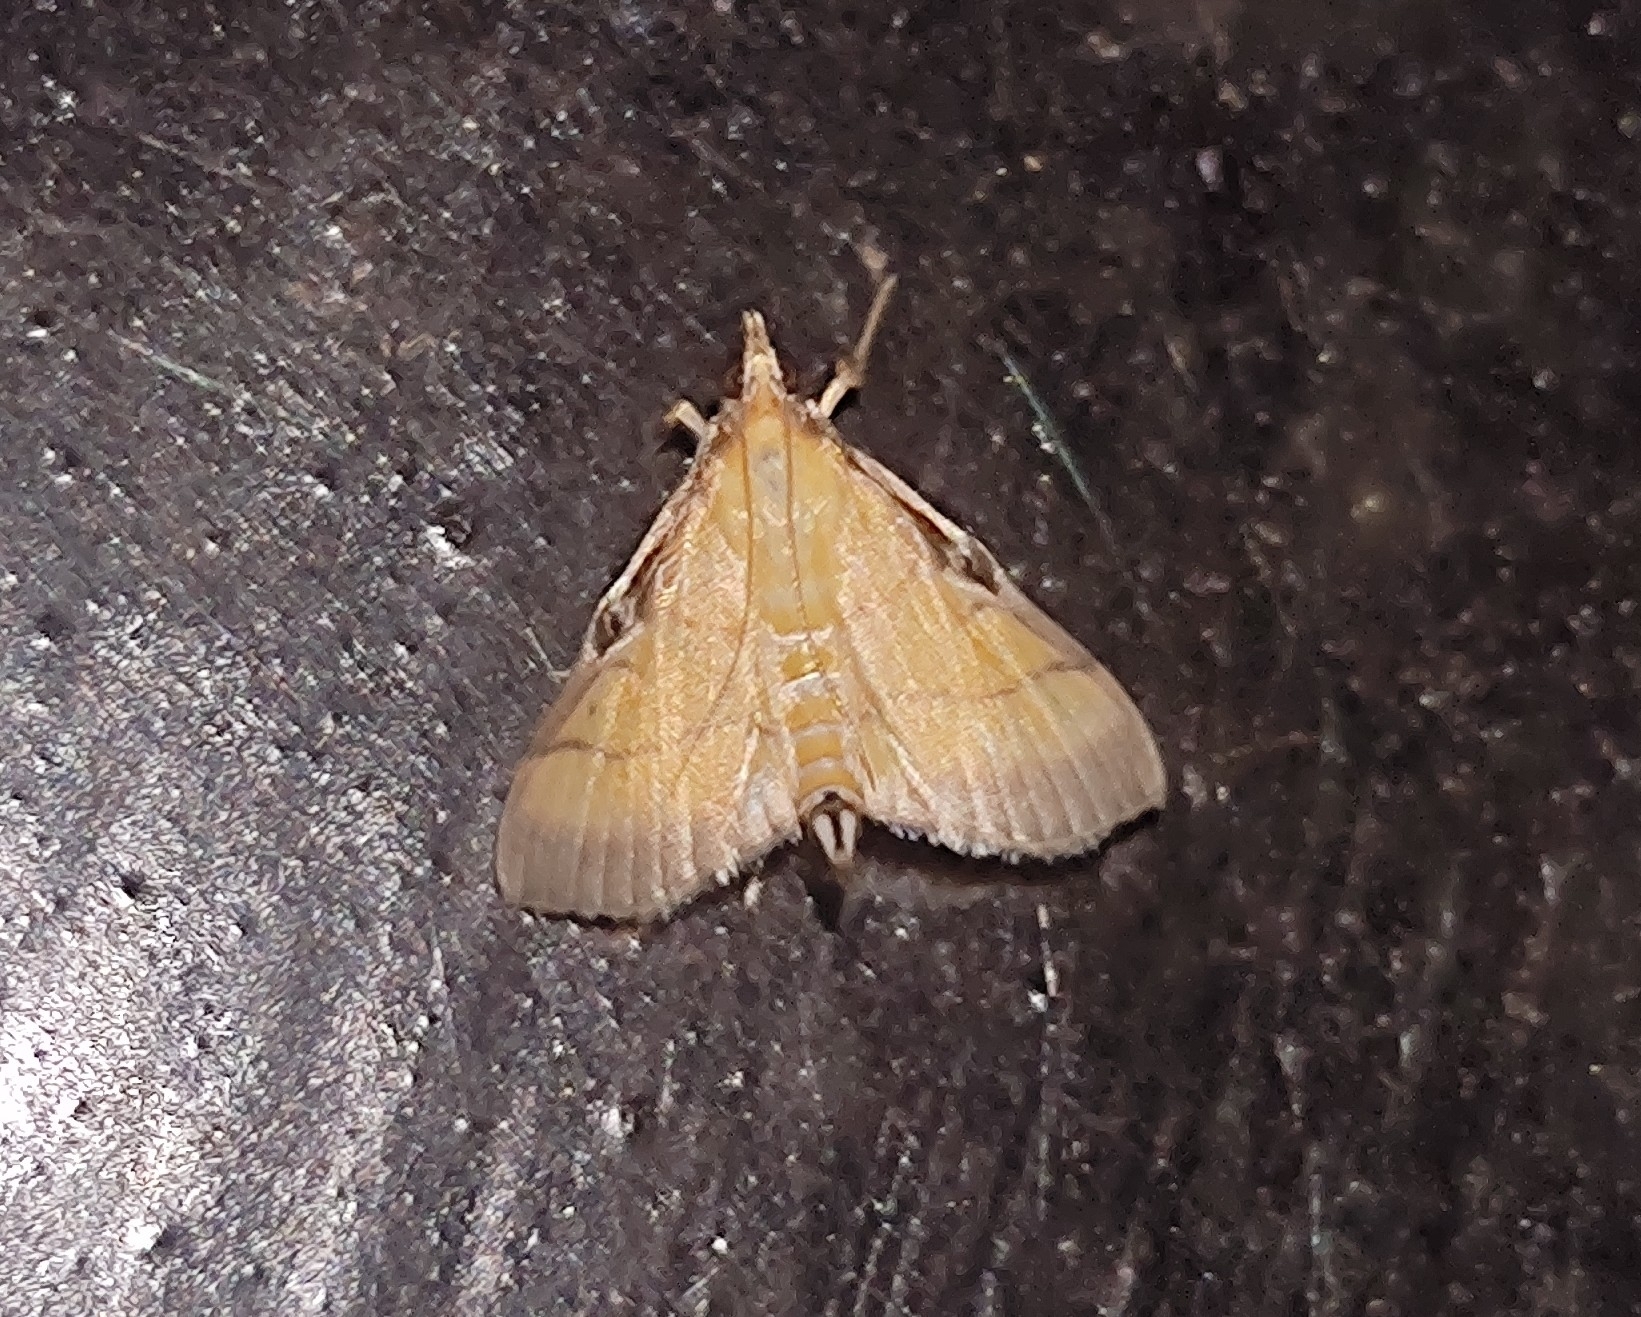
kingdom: Animalia
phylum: Arthropoda
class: Insecta
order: Lepidoptera
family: Crambidae
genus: Cnaphalocrocis
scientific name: Cnaphalocrocis medinalis
